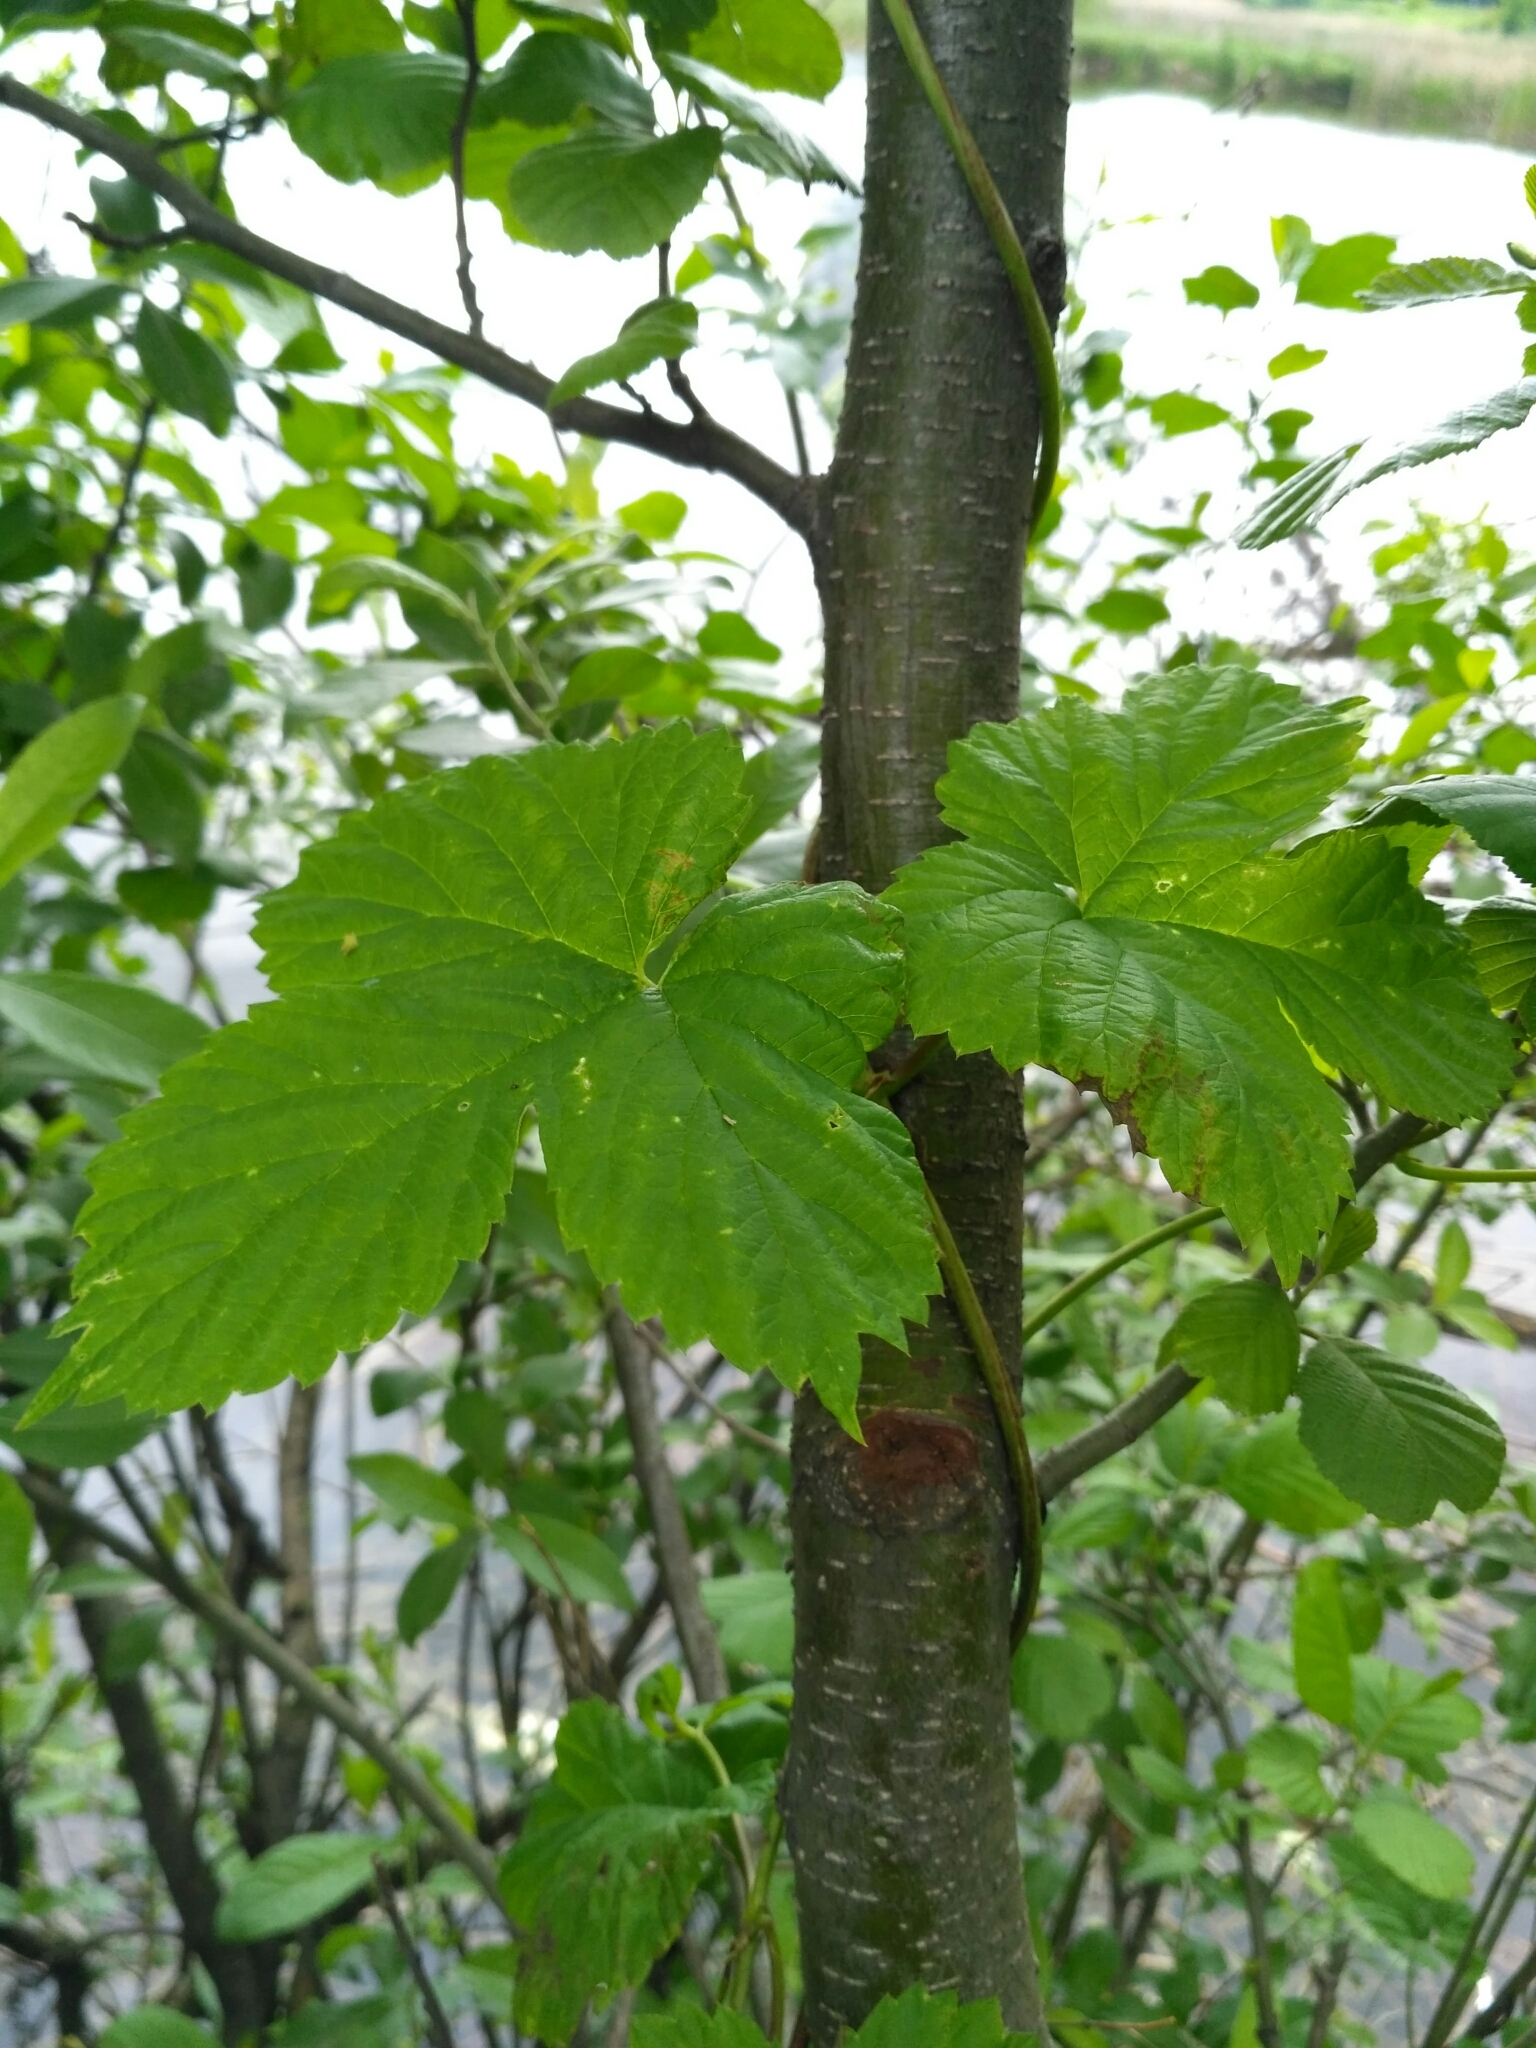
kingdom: Plantae
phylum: Tracheophyta
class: Magnoliopsida
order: Rosales
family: Cannabaceae
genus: Humulus
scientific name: Humulus lupulus
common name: Hop
